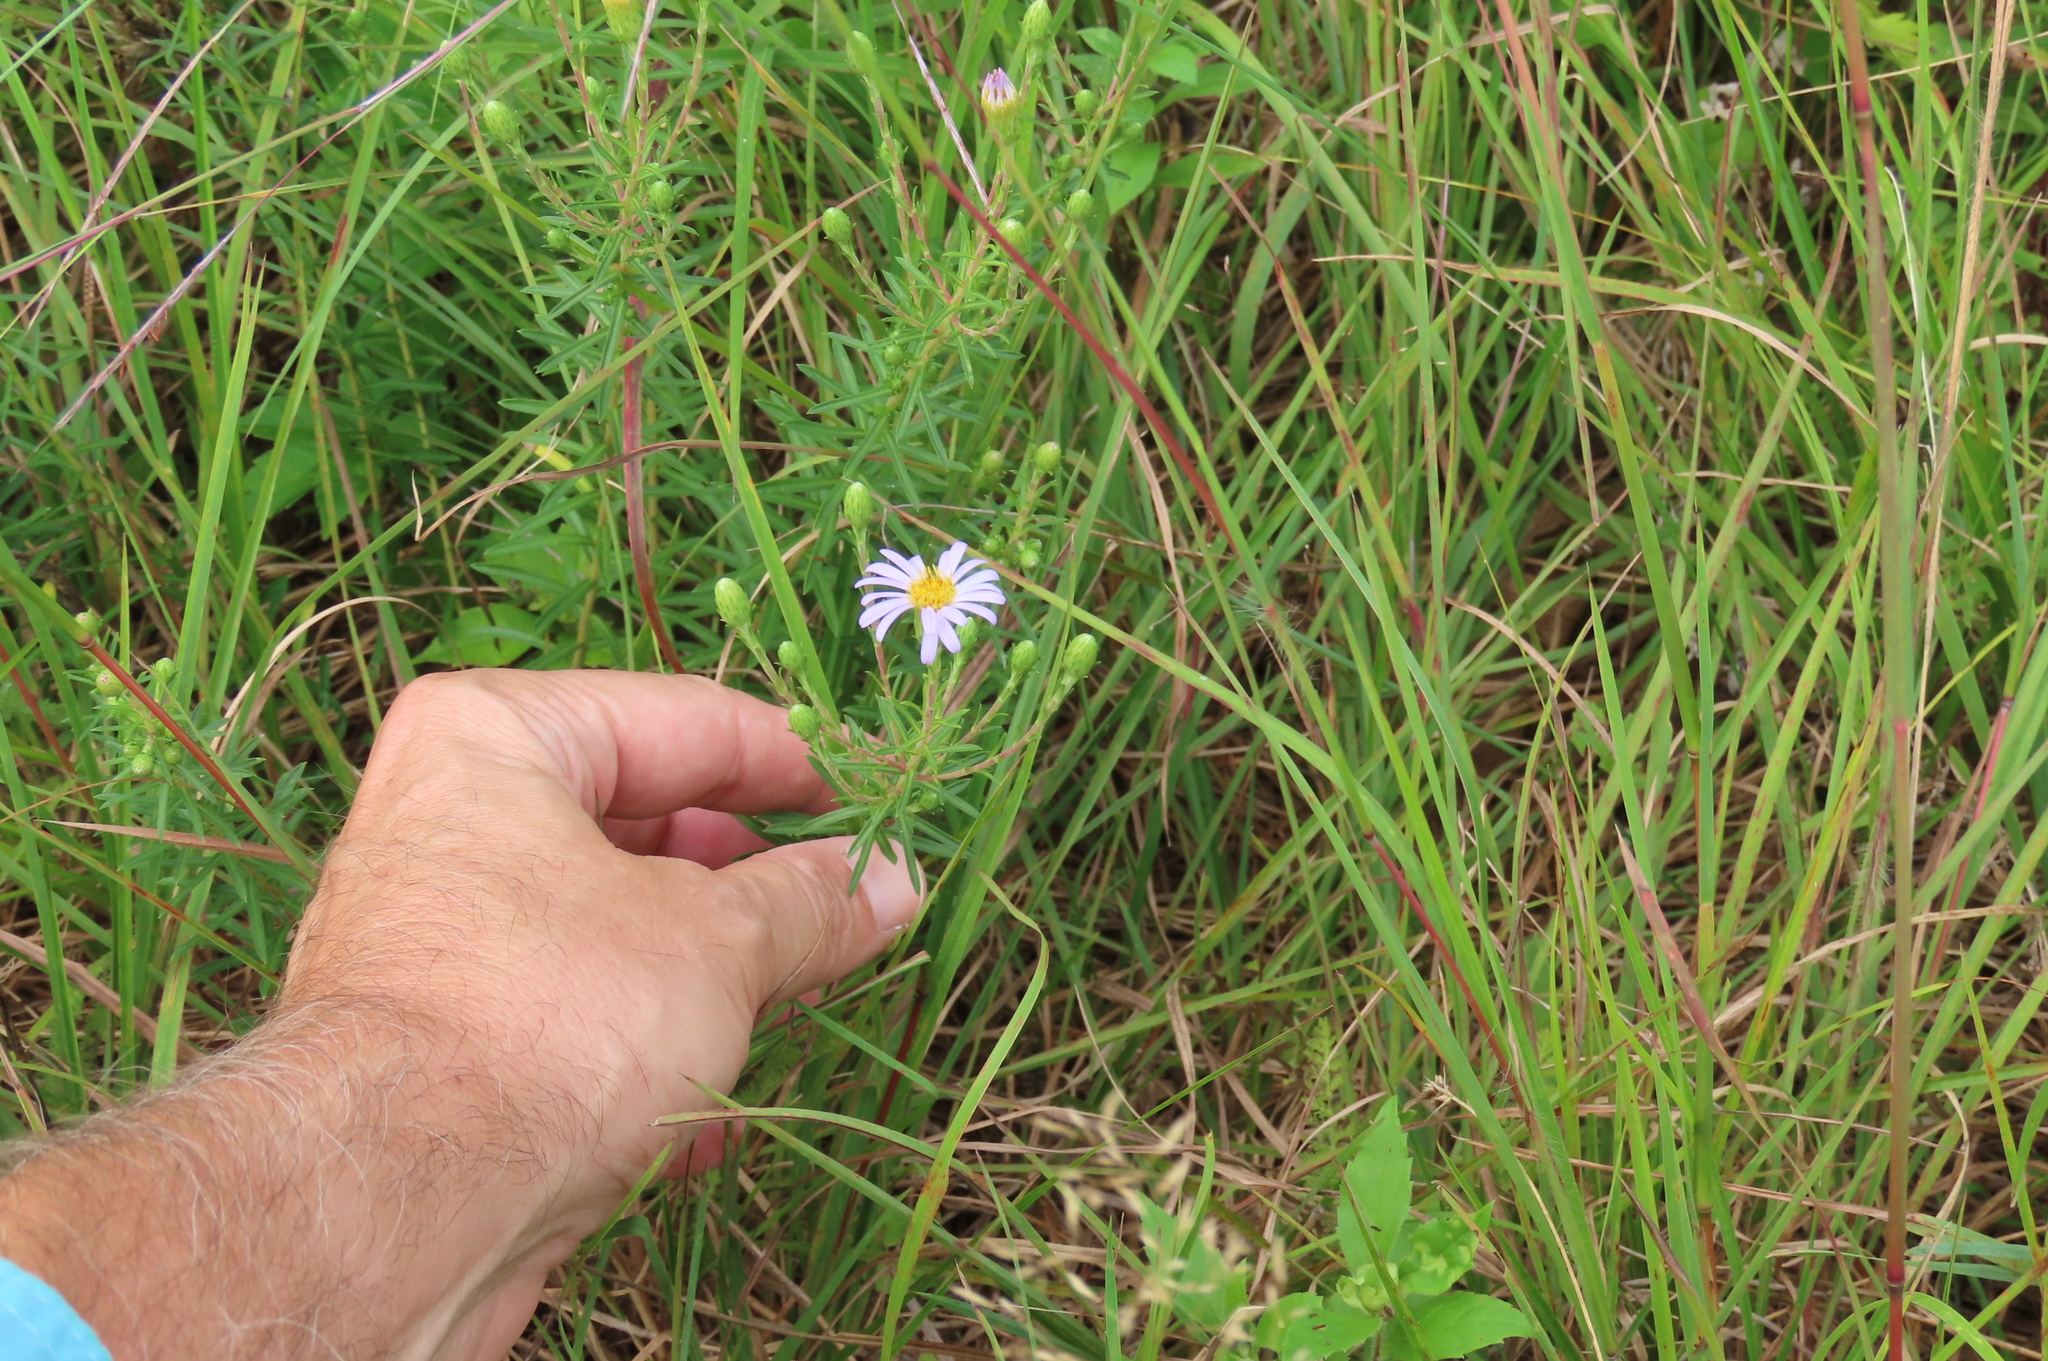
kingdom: Plantae
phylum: Tracheophyta
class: Magnoliopsida
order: Asterales
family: Asteraceae
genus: Ionactis
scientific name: Ionactis linariifolia
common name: Flax-leaf aster
